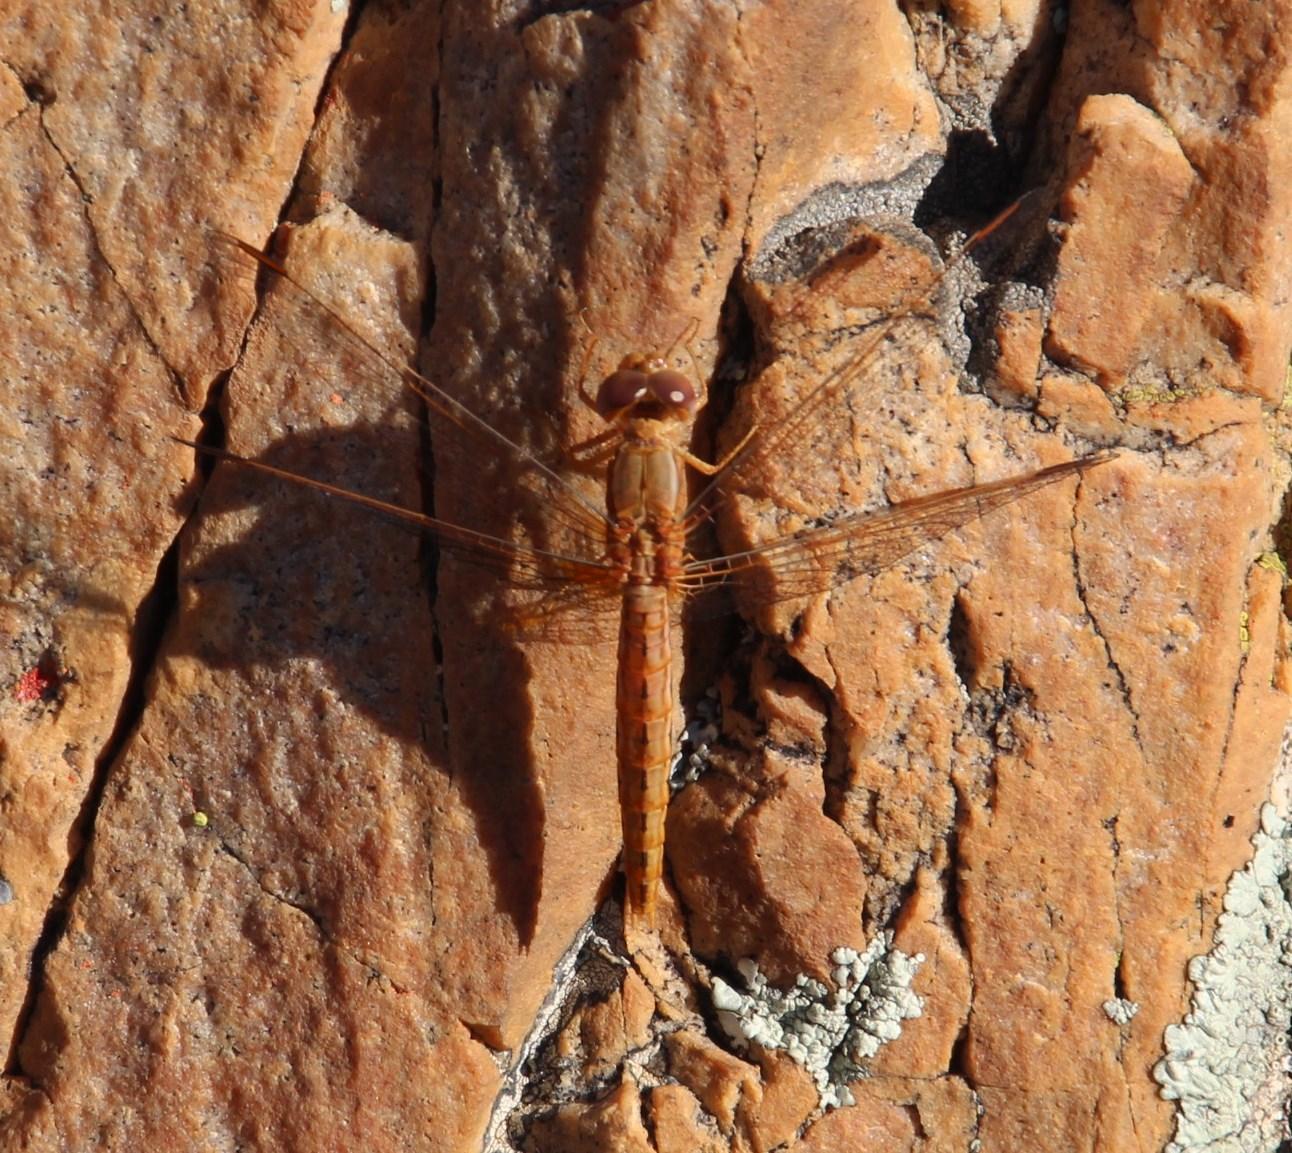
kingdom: Animalia
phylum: Arthropoda
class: Insecta
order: Odonata
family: Libellulidae
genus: Crocothemis
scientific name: Crocothemis sanguinolenta
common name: Little scarlet
